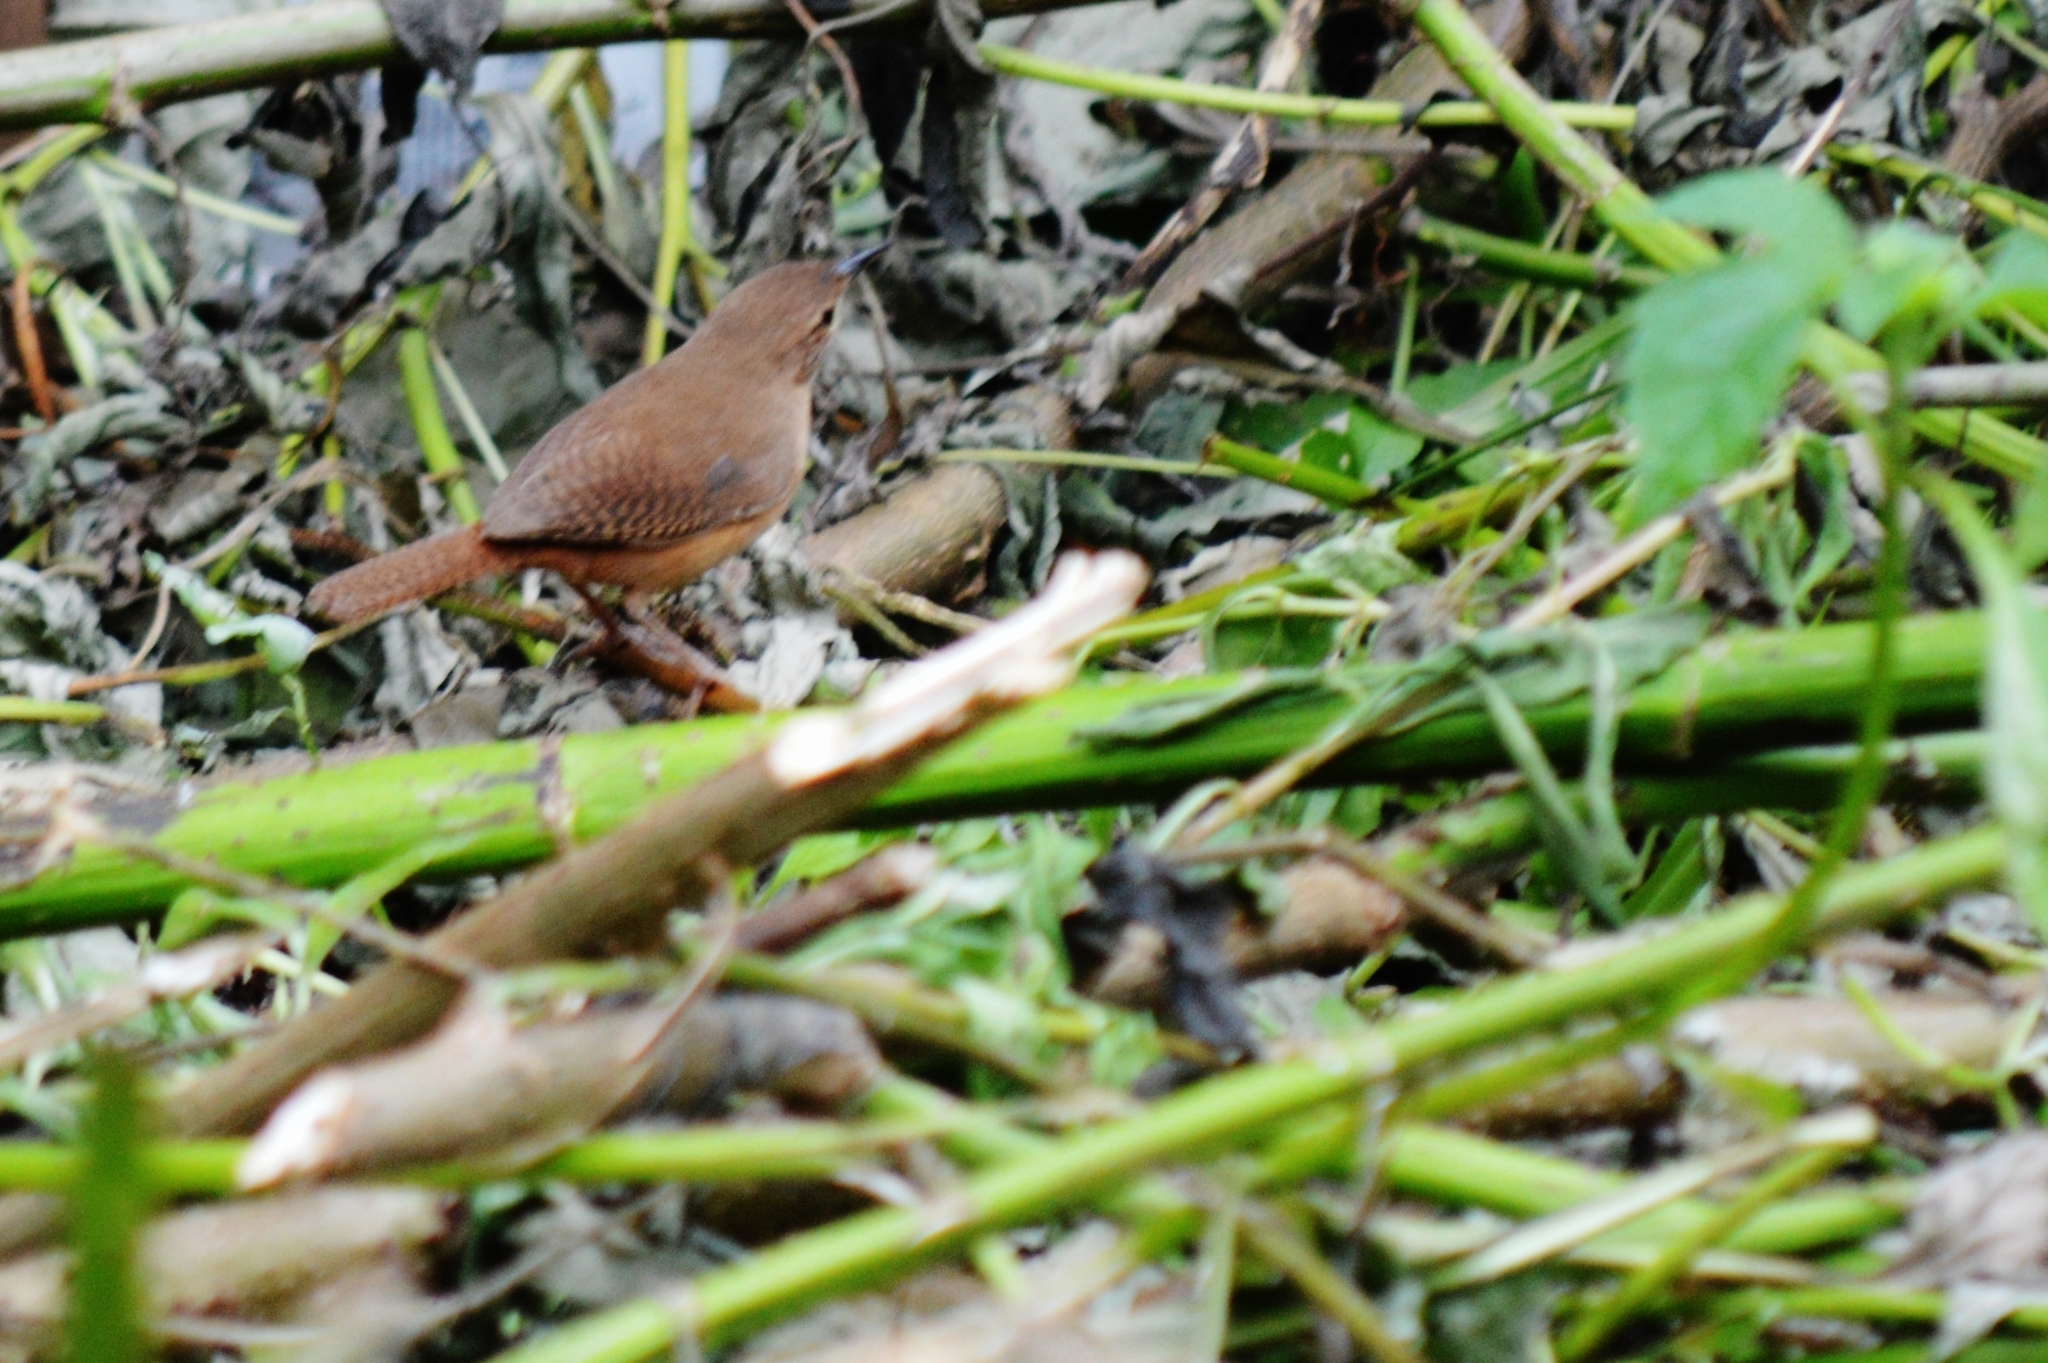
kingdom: Animalia
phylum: Chordata
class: Aves
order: Passeriformes
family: Troglodytidae
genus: Troglodytes
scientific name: Troglodytes aedon
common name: House wren
